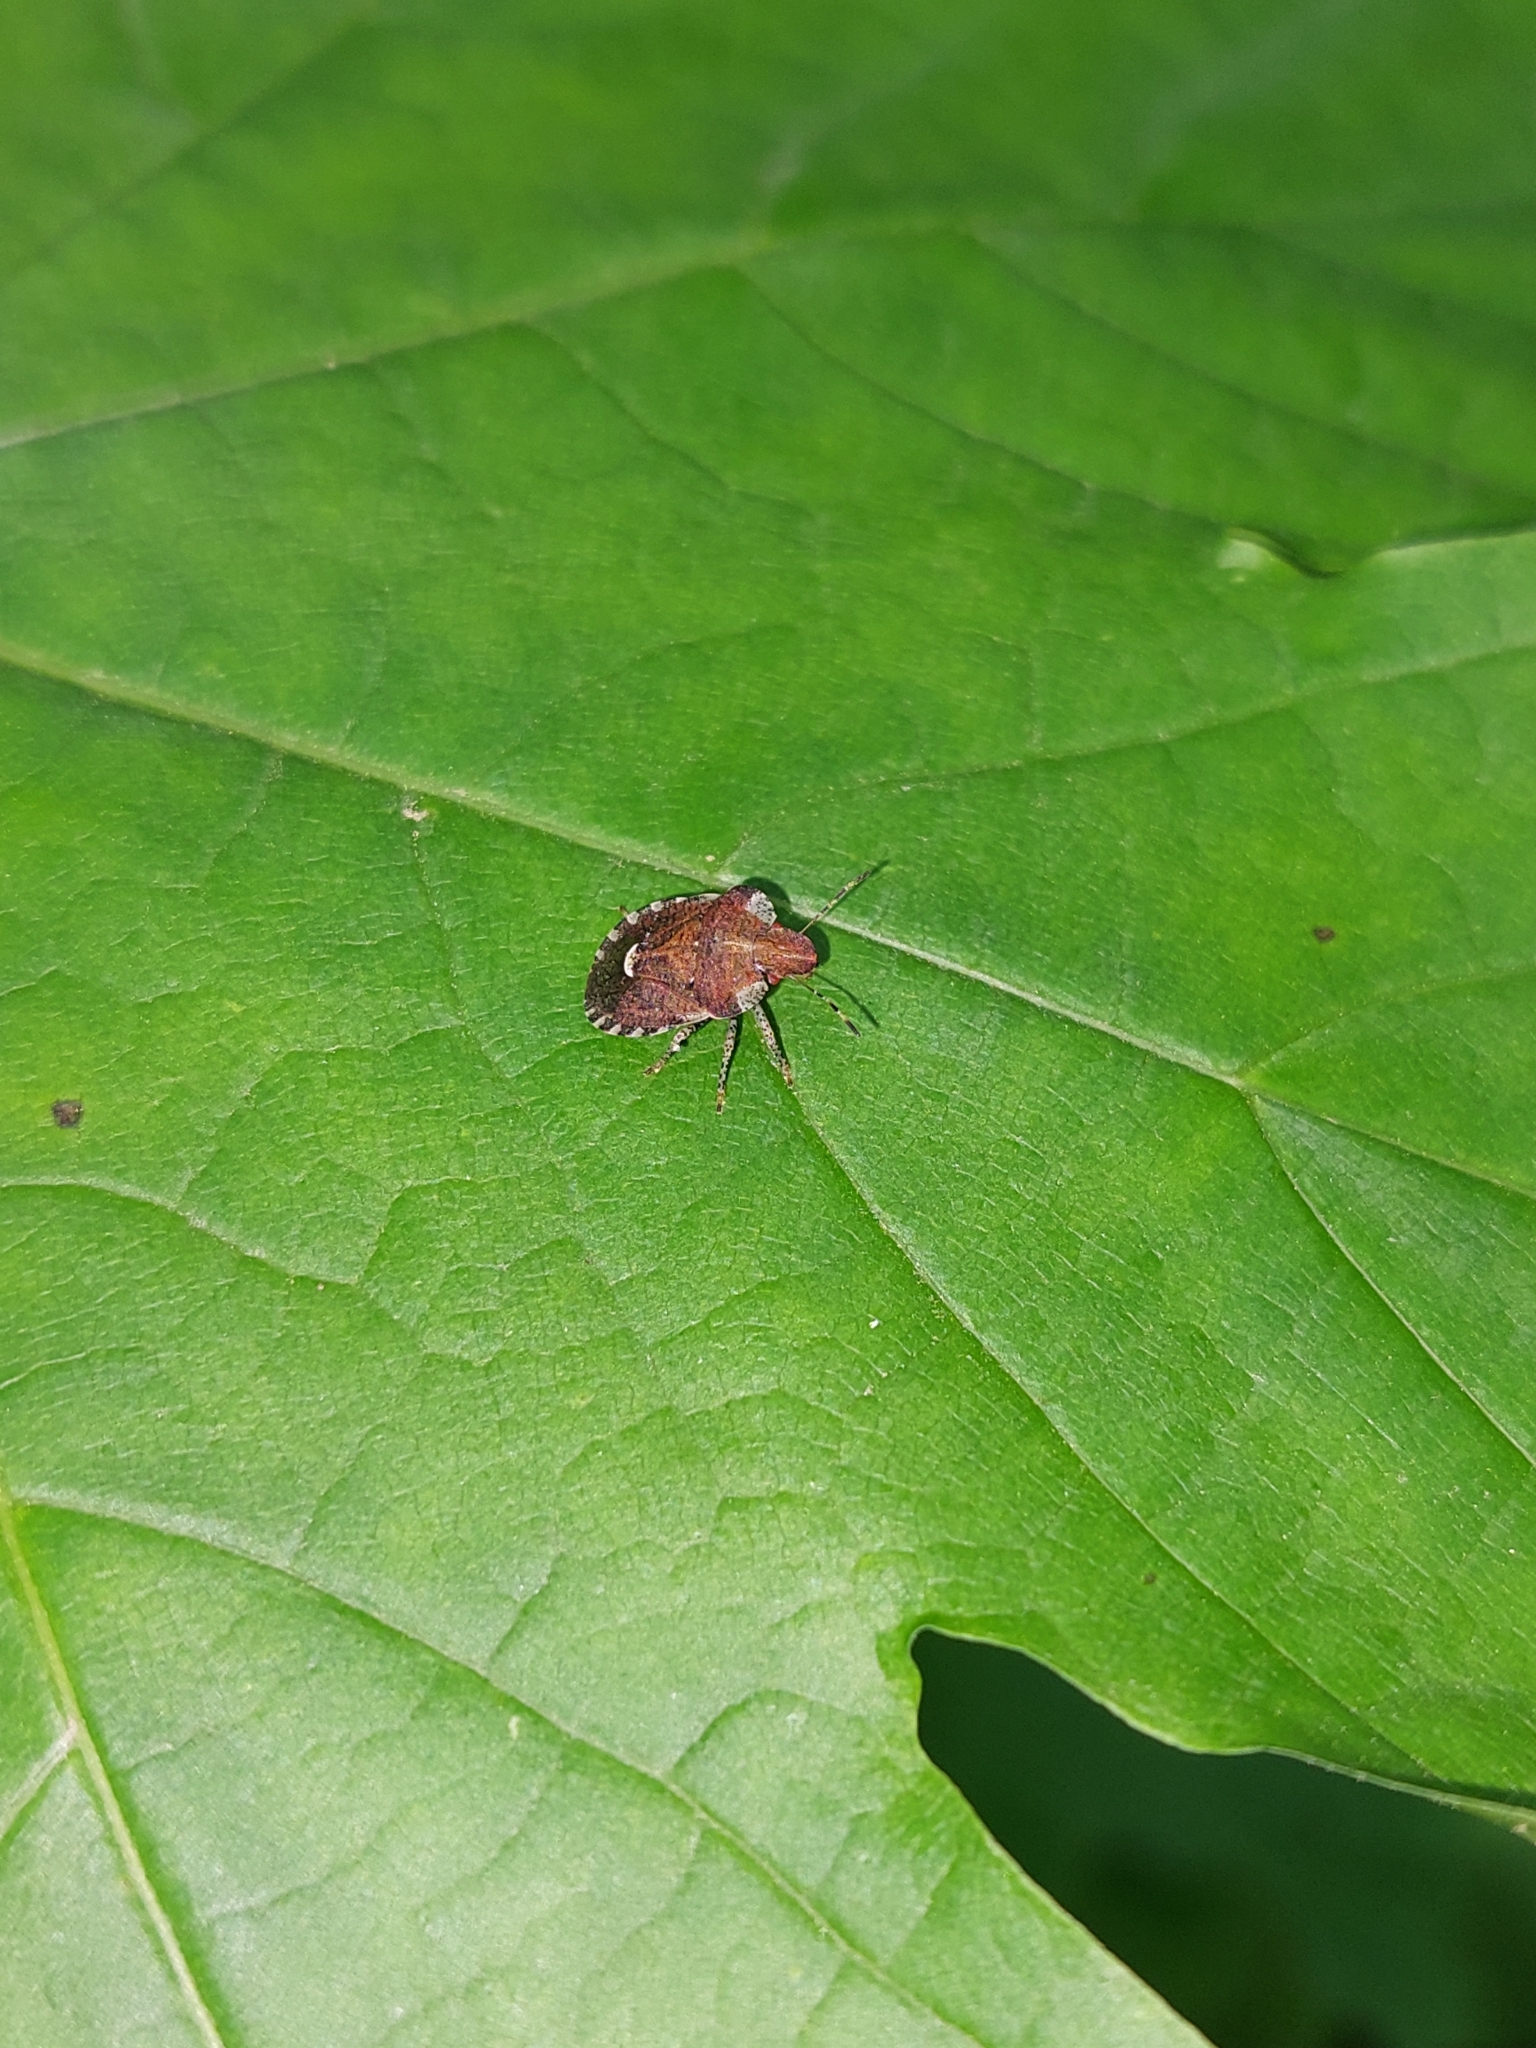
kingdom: Animalia
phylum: Arthropoda
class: Insecta
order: Hemiptera
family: Pentatomidae
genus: Dyroderes
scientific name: Dyroderes umbraculatus
